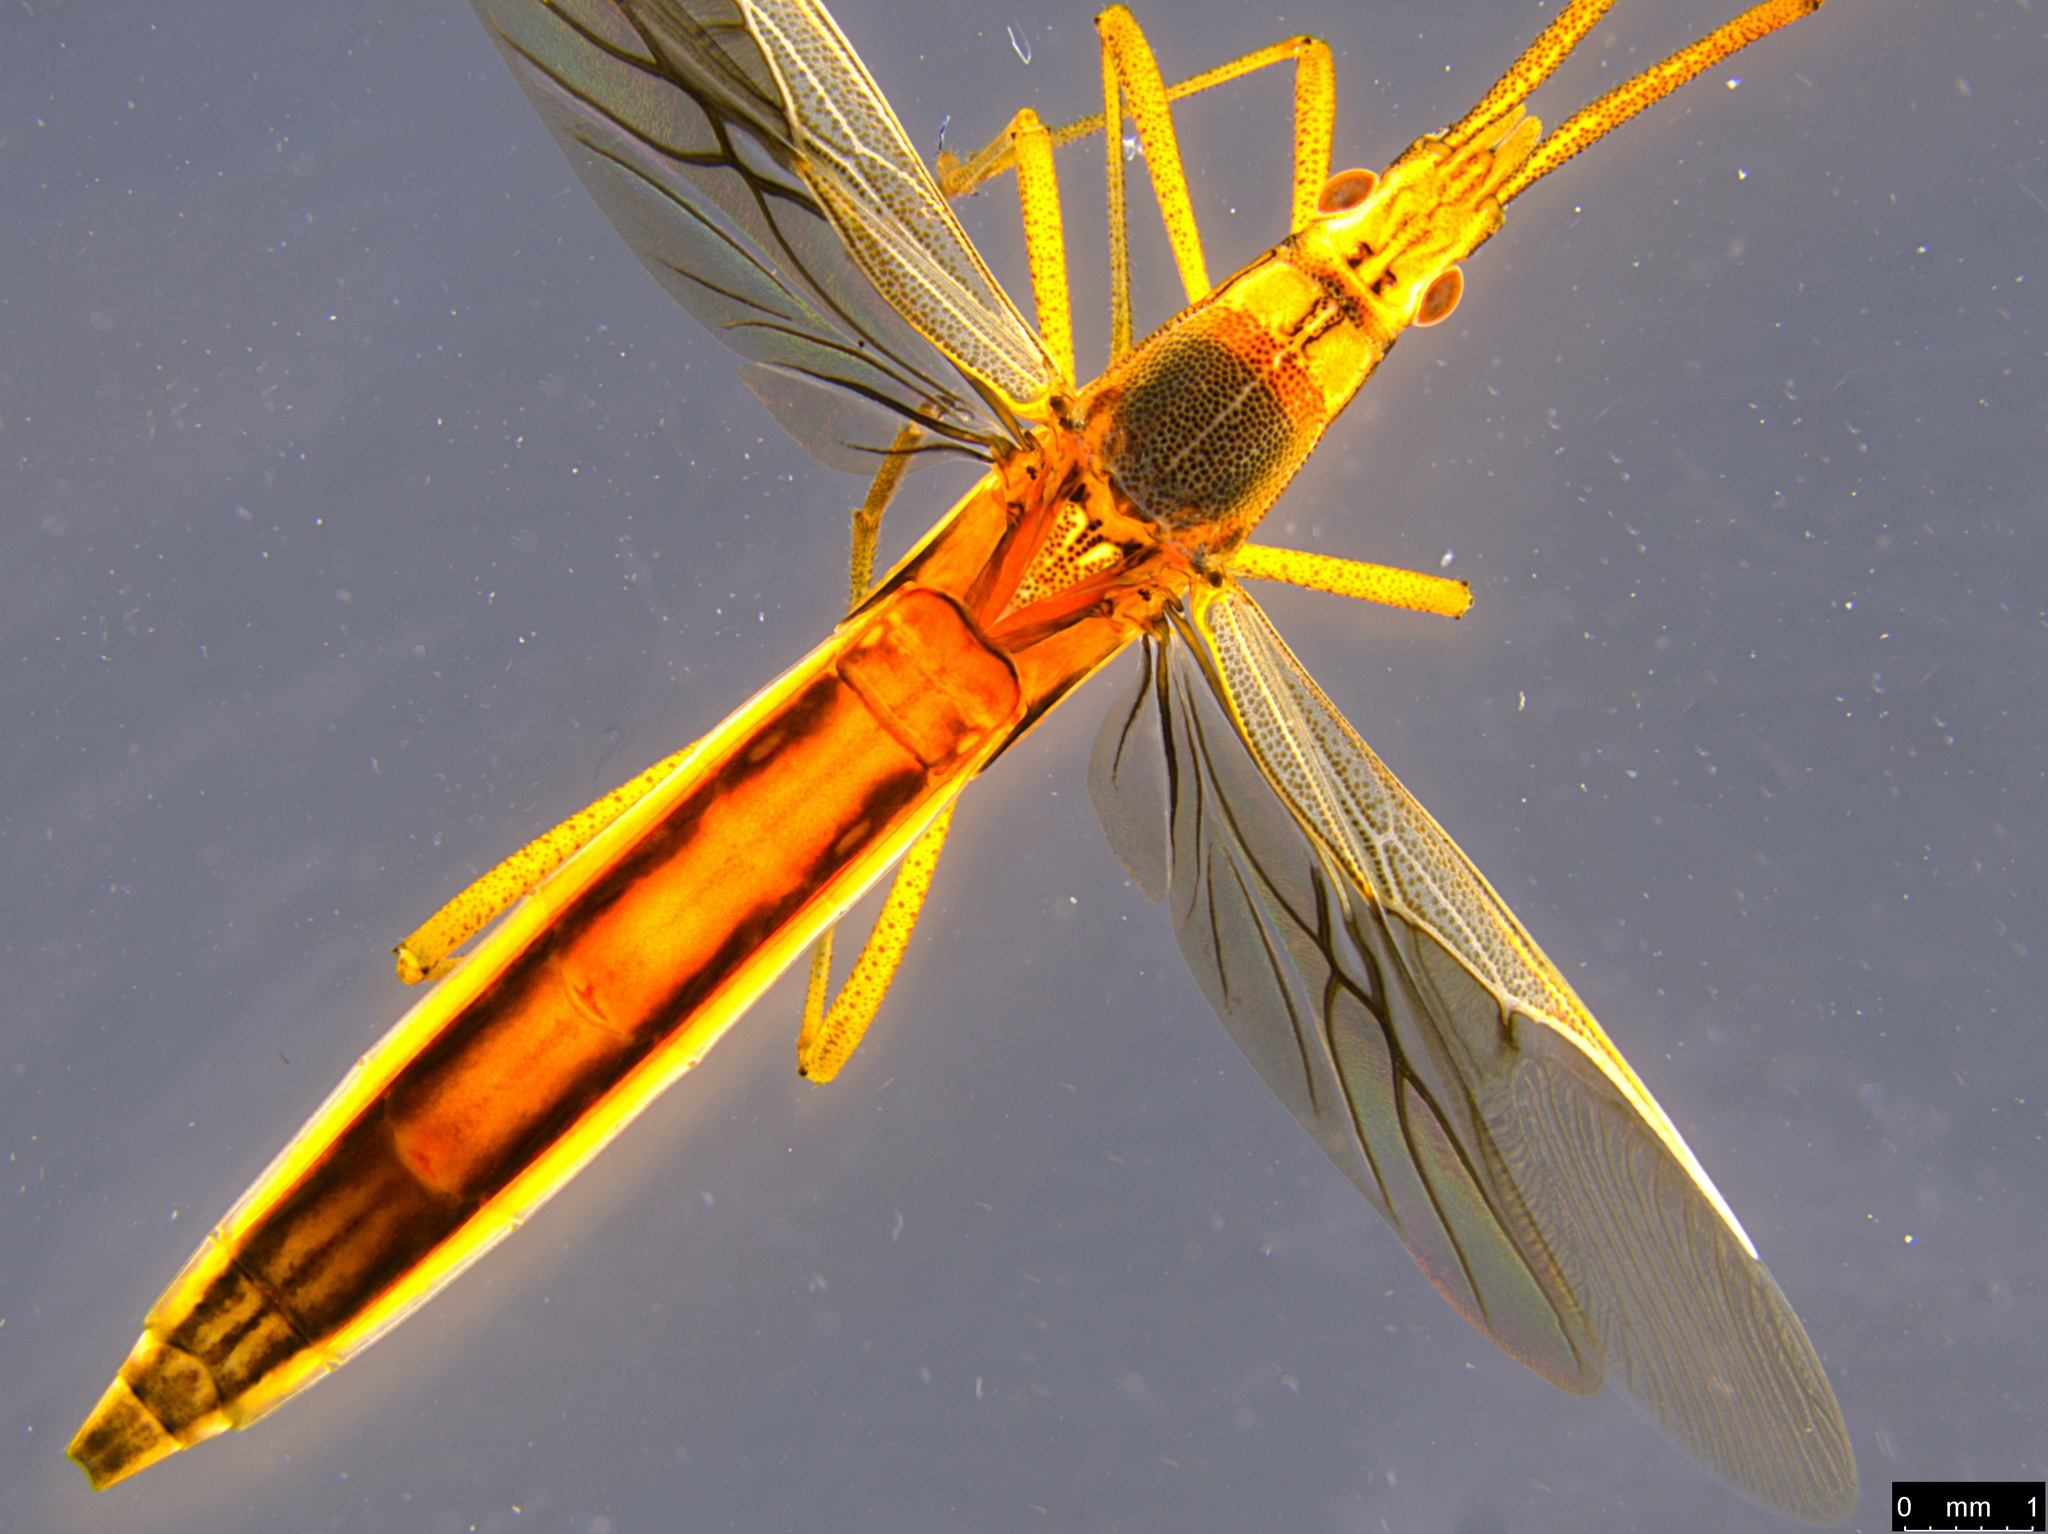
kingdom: Animalia
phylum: Arthropoda
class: Insecta
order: Hemiptera
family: Alydidae
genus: Mutusca
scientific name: Mutusca brevicornis
